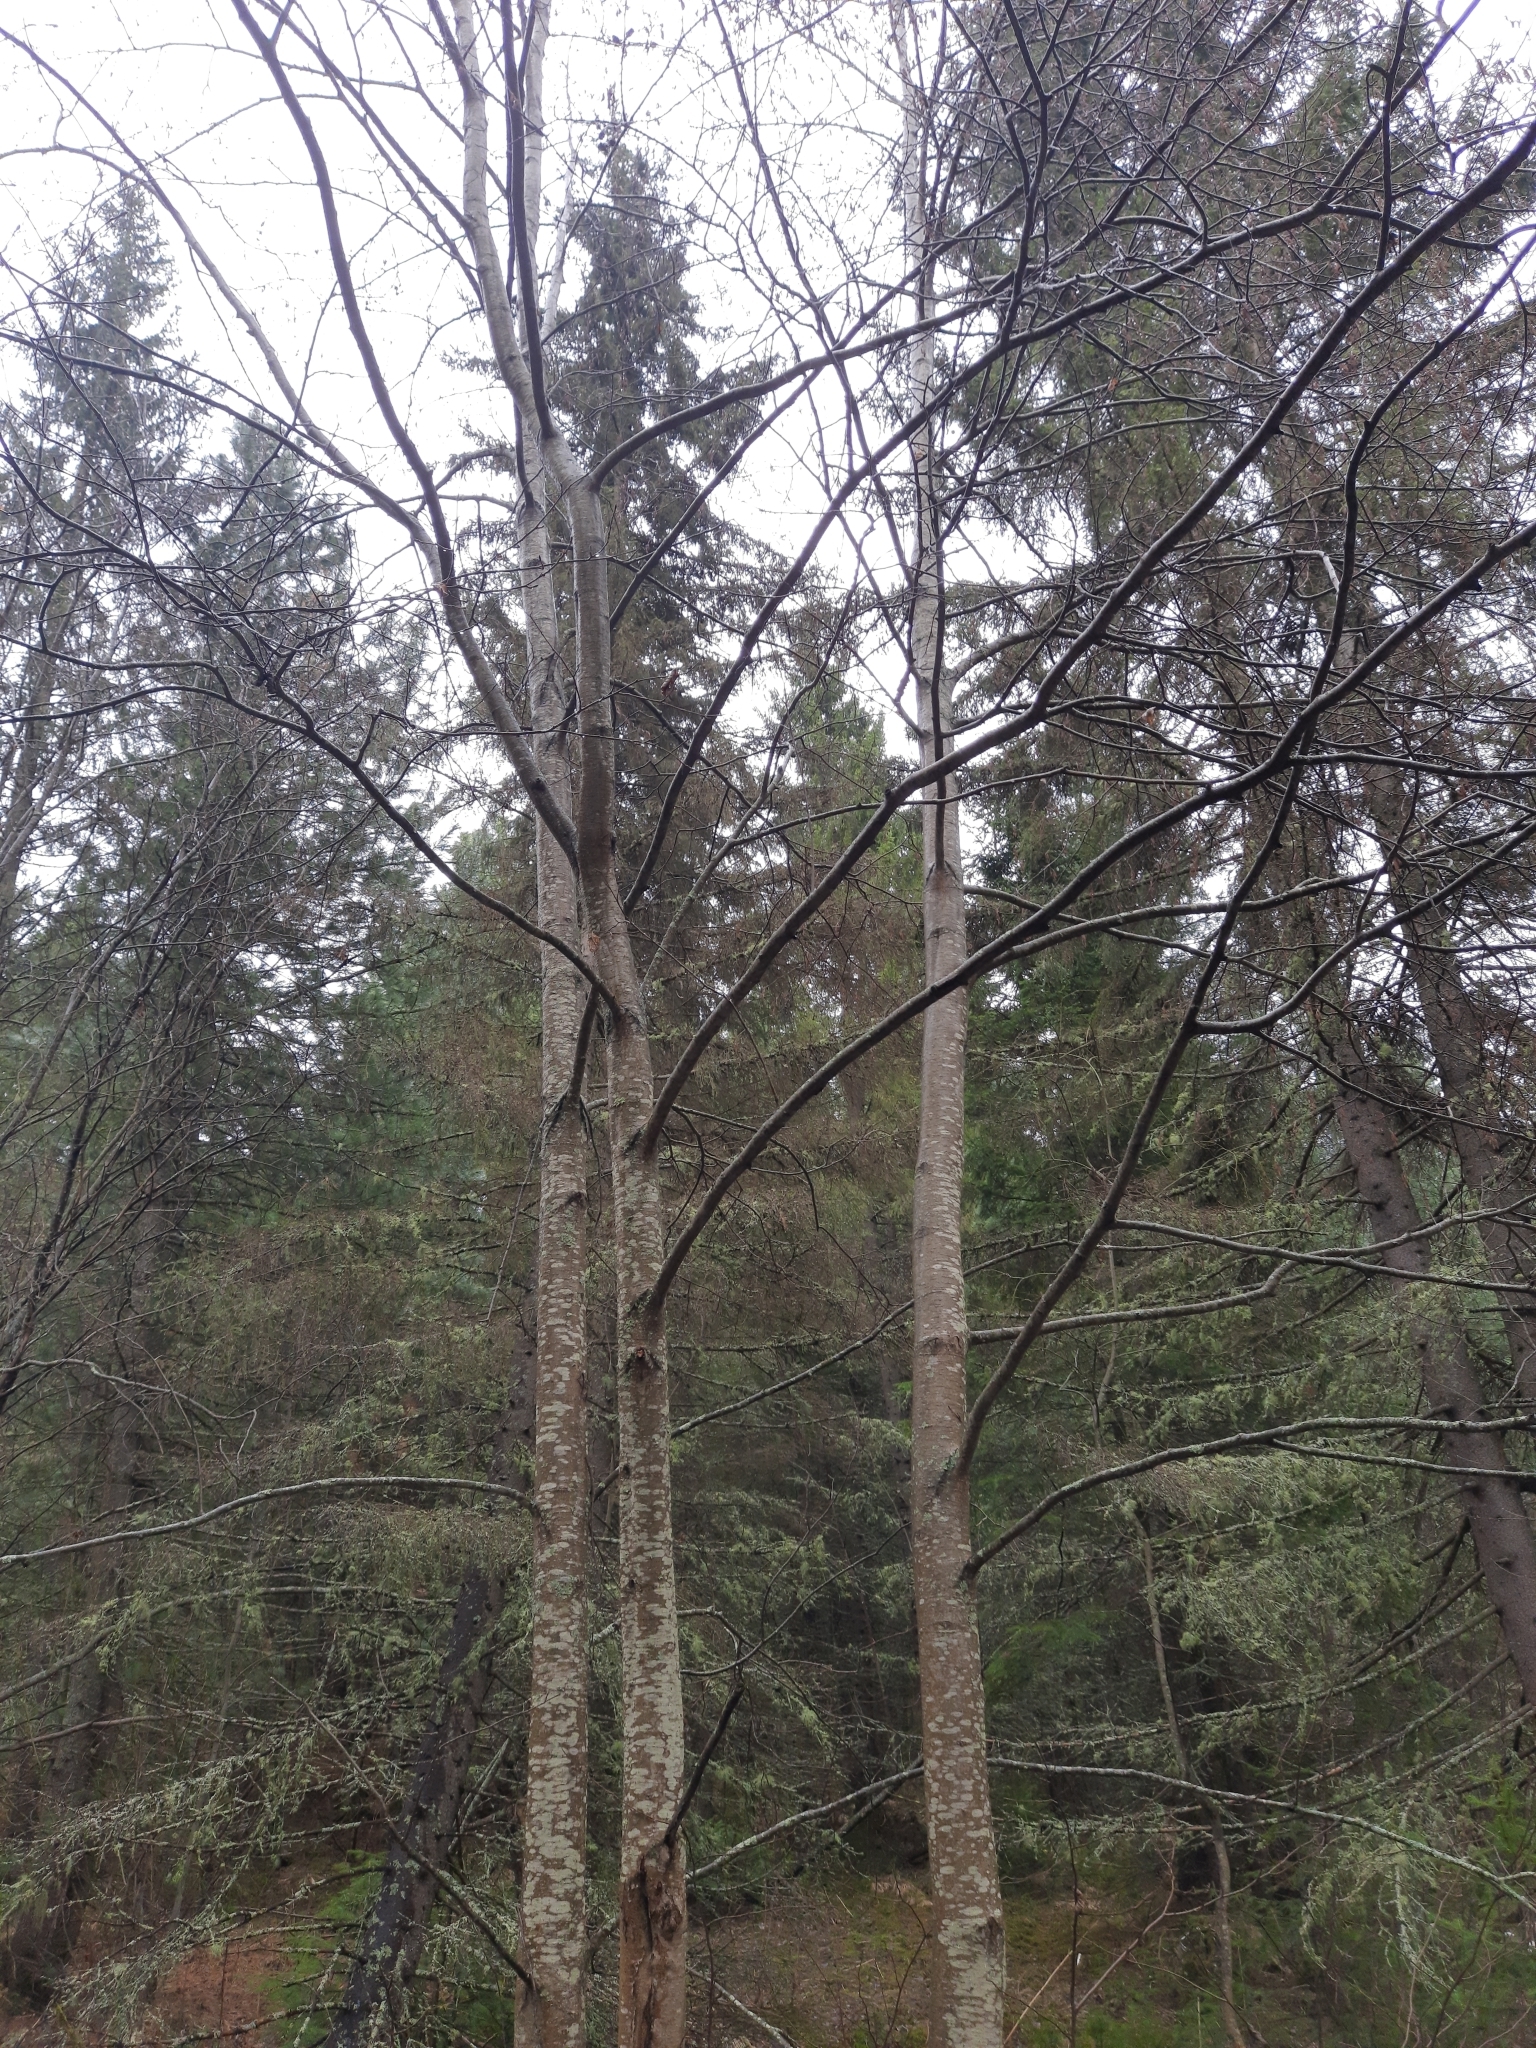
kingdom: Plantae
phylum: Tracheophyta
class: Magnoliopsida
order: Fagales
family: Betulaceae
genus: Alnus
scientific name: Alnus incana
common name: Grey alder
